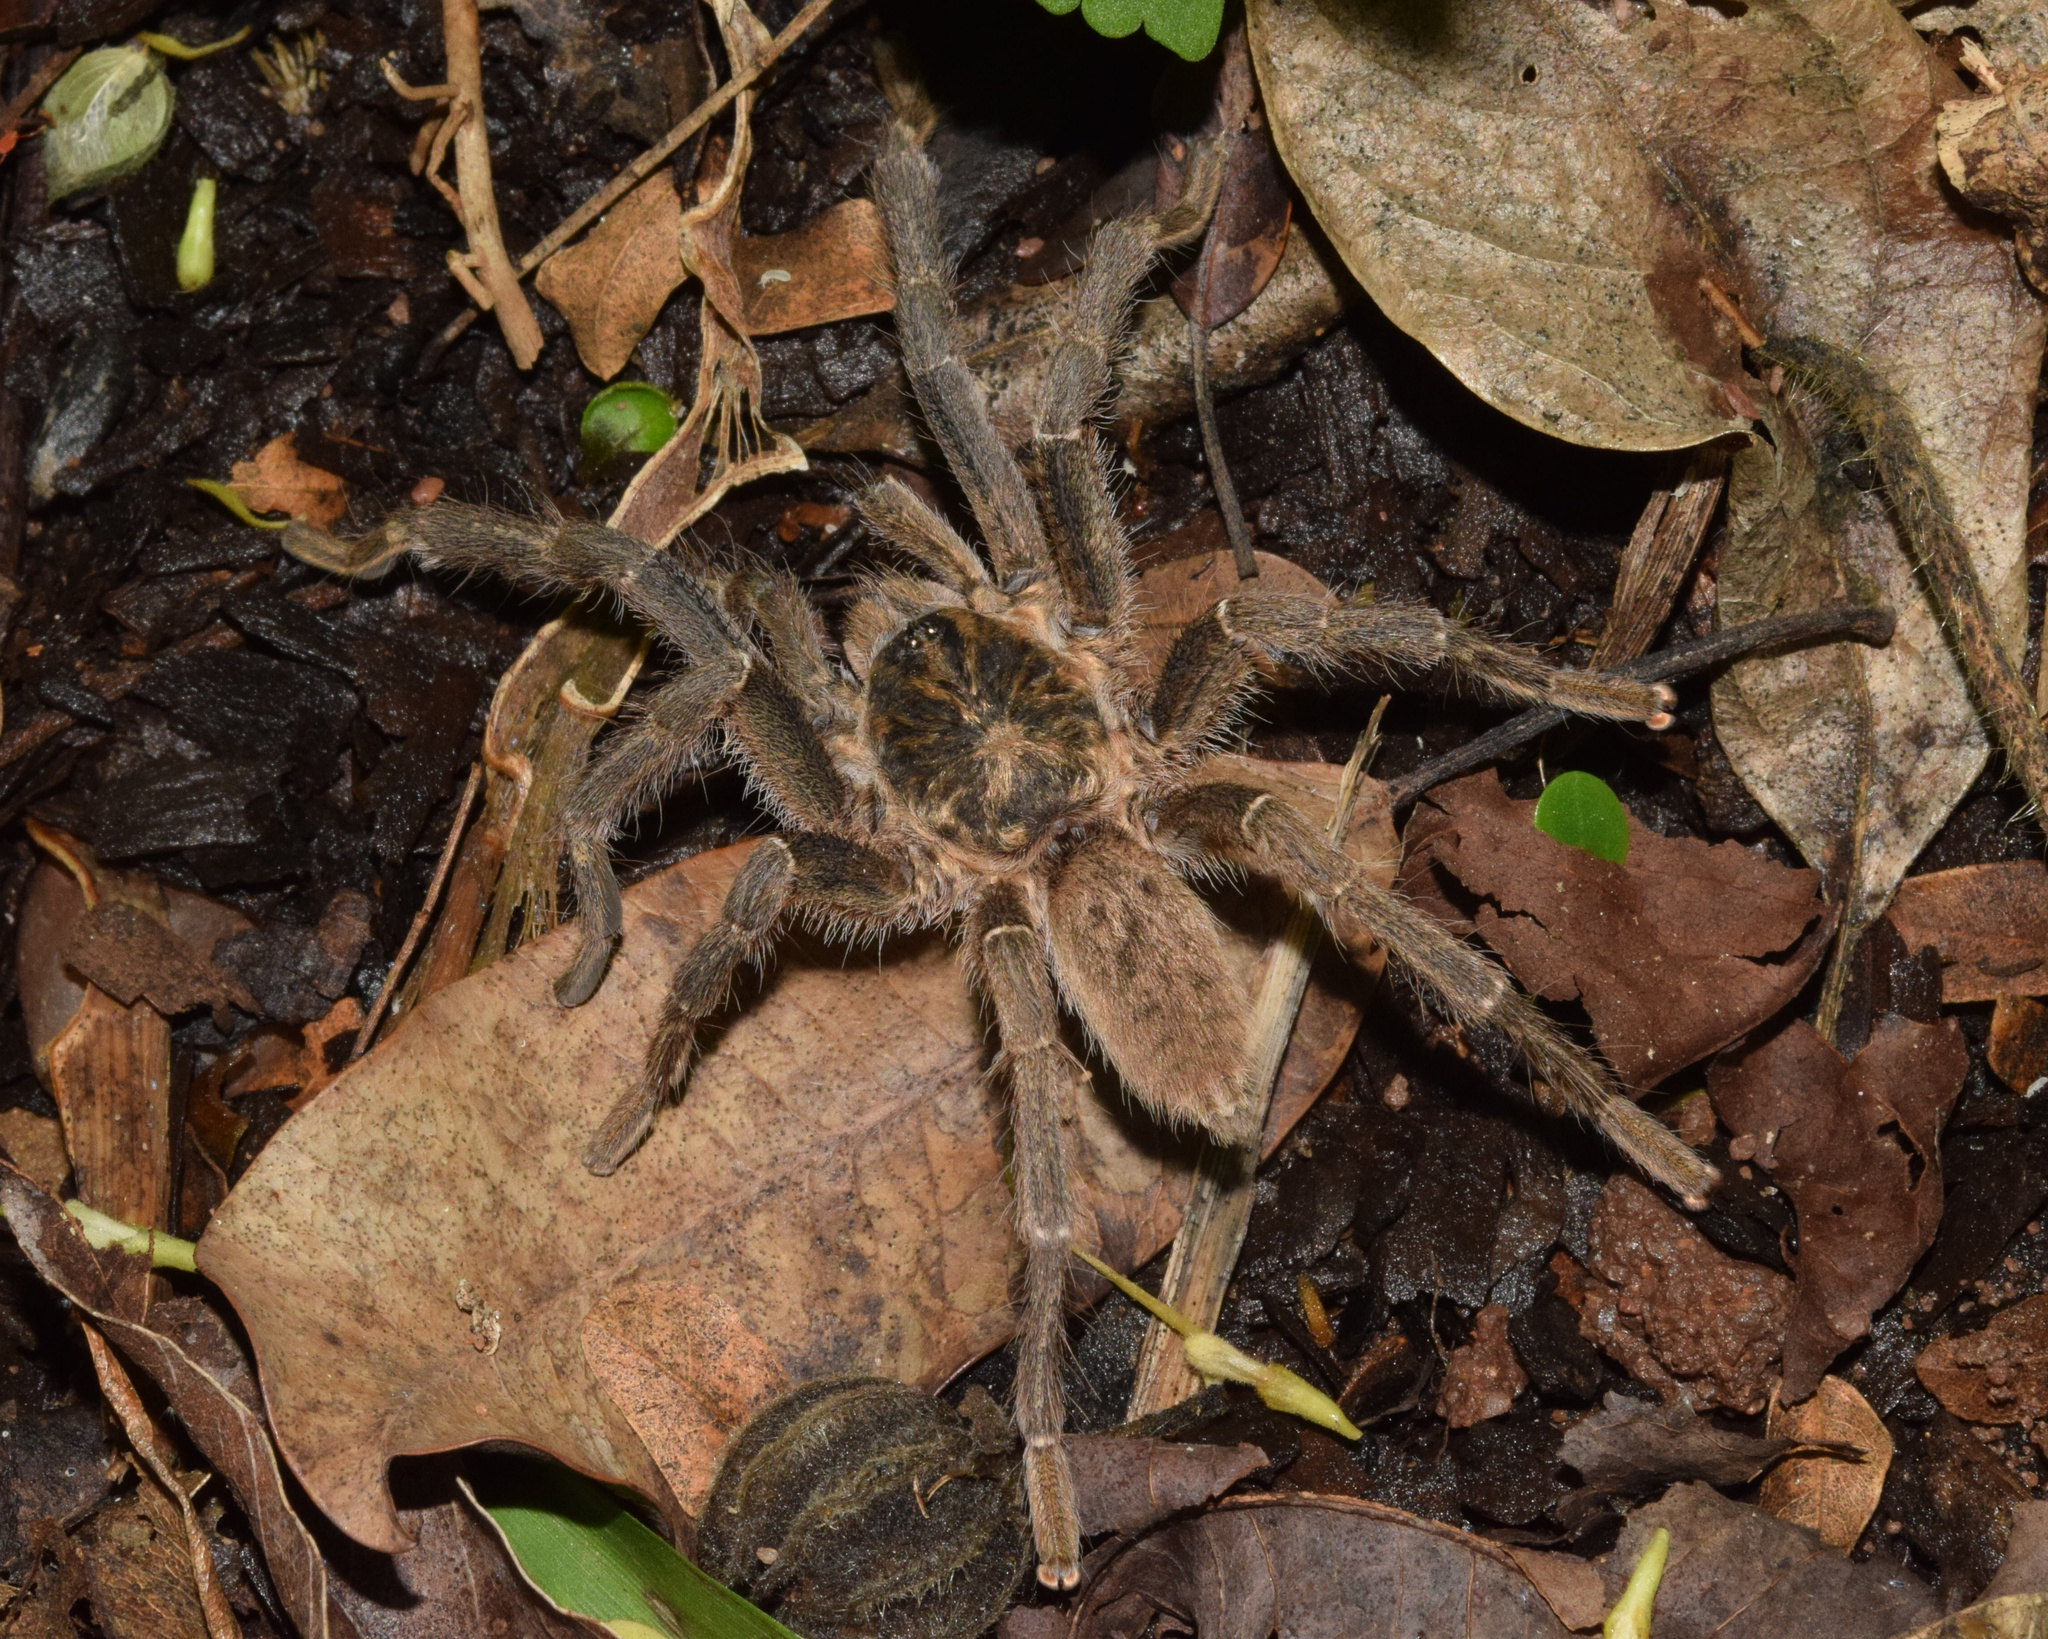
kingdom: Animalia
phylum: Arthropoda
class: Arachnida
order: Araneae
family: Theraphosidae
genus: Harpactira
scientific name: Harpactira curator
